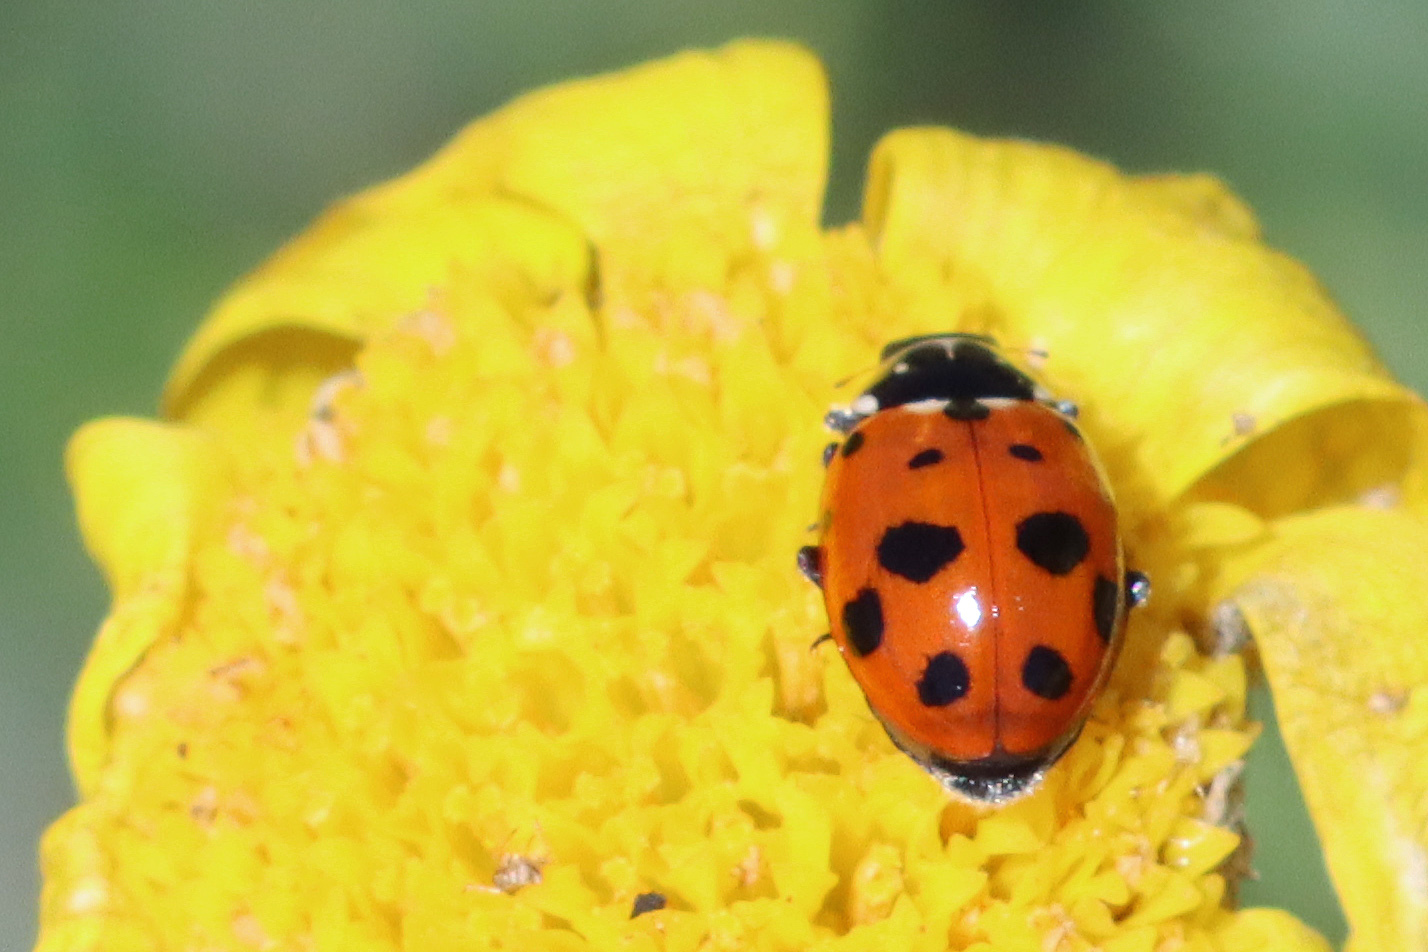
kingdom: Animalia
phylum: Arthropoda
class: Insecta
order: Coleoptera
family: Coccinellidae
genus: Hippodamia
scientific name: Hippodamia variegata
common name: Ladybird beetle
